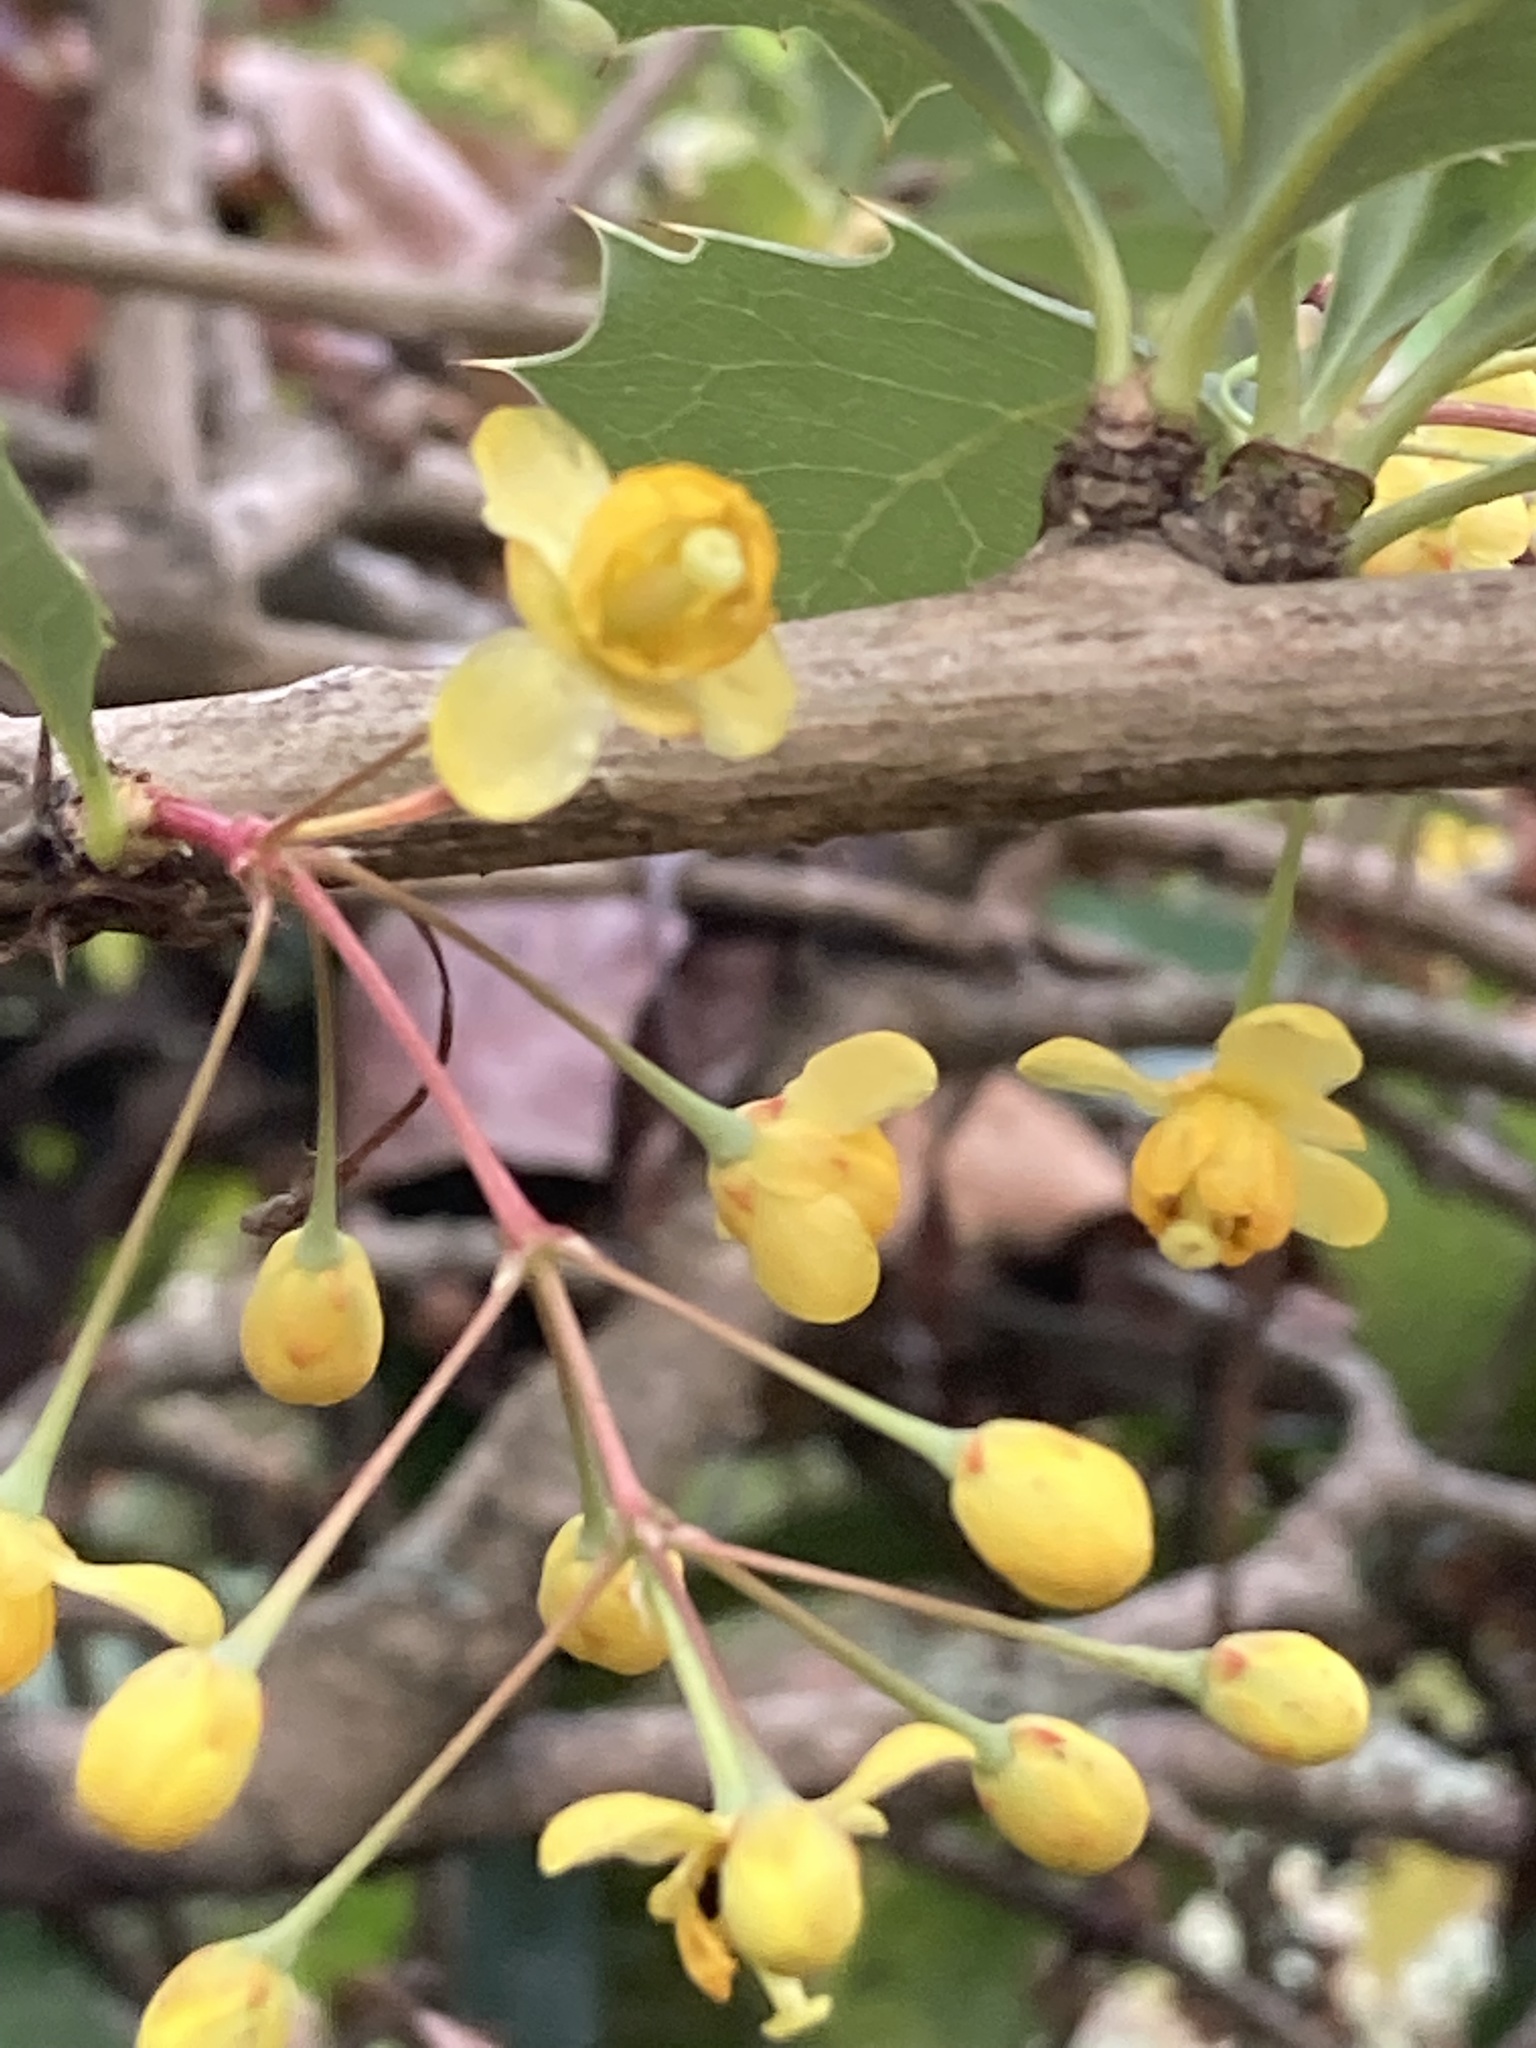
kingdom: Plantae
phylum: Tracheophyta
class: Magnoliopsida
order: Ranunculales
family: Berberidaceae
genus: Berberis
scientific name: Berberis asiatica
